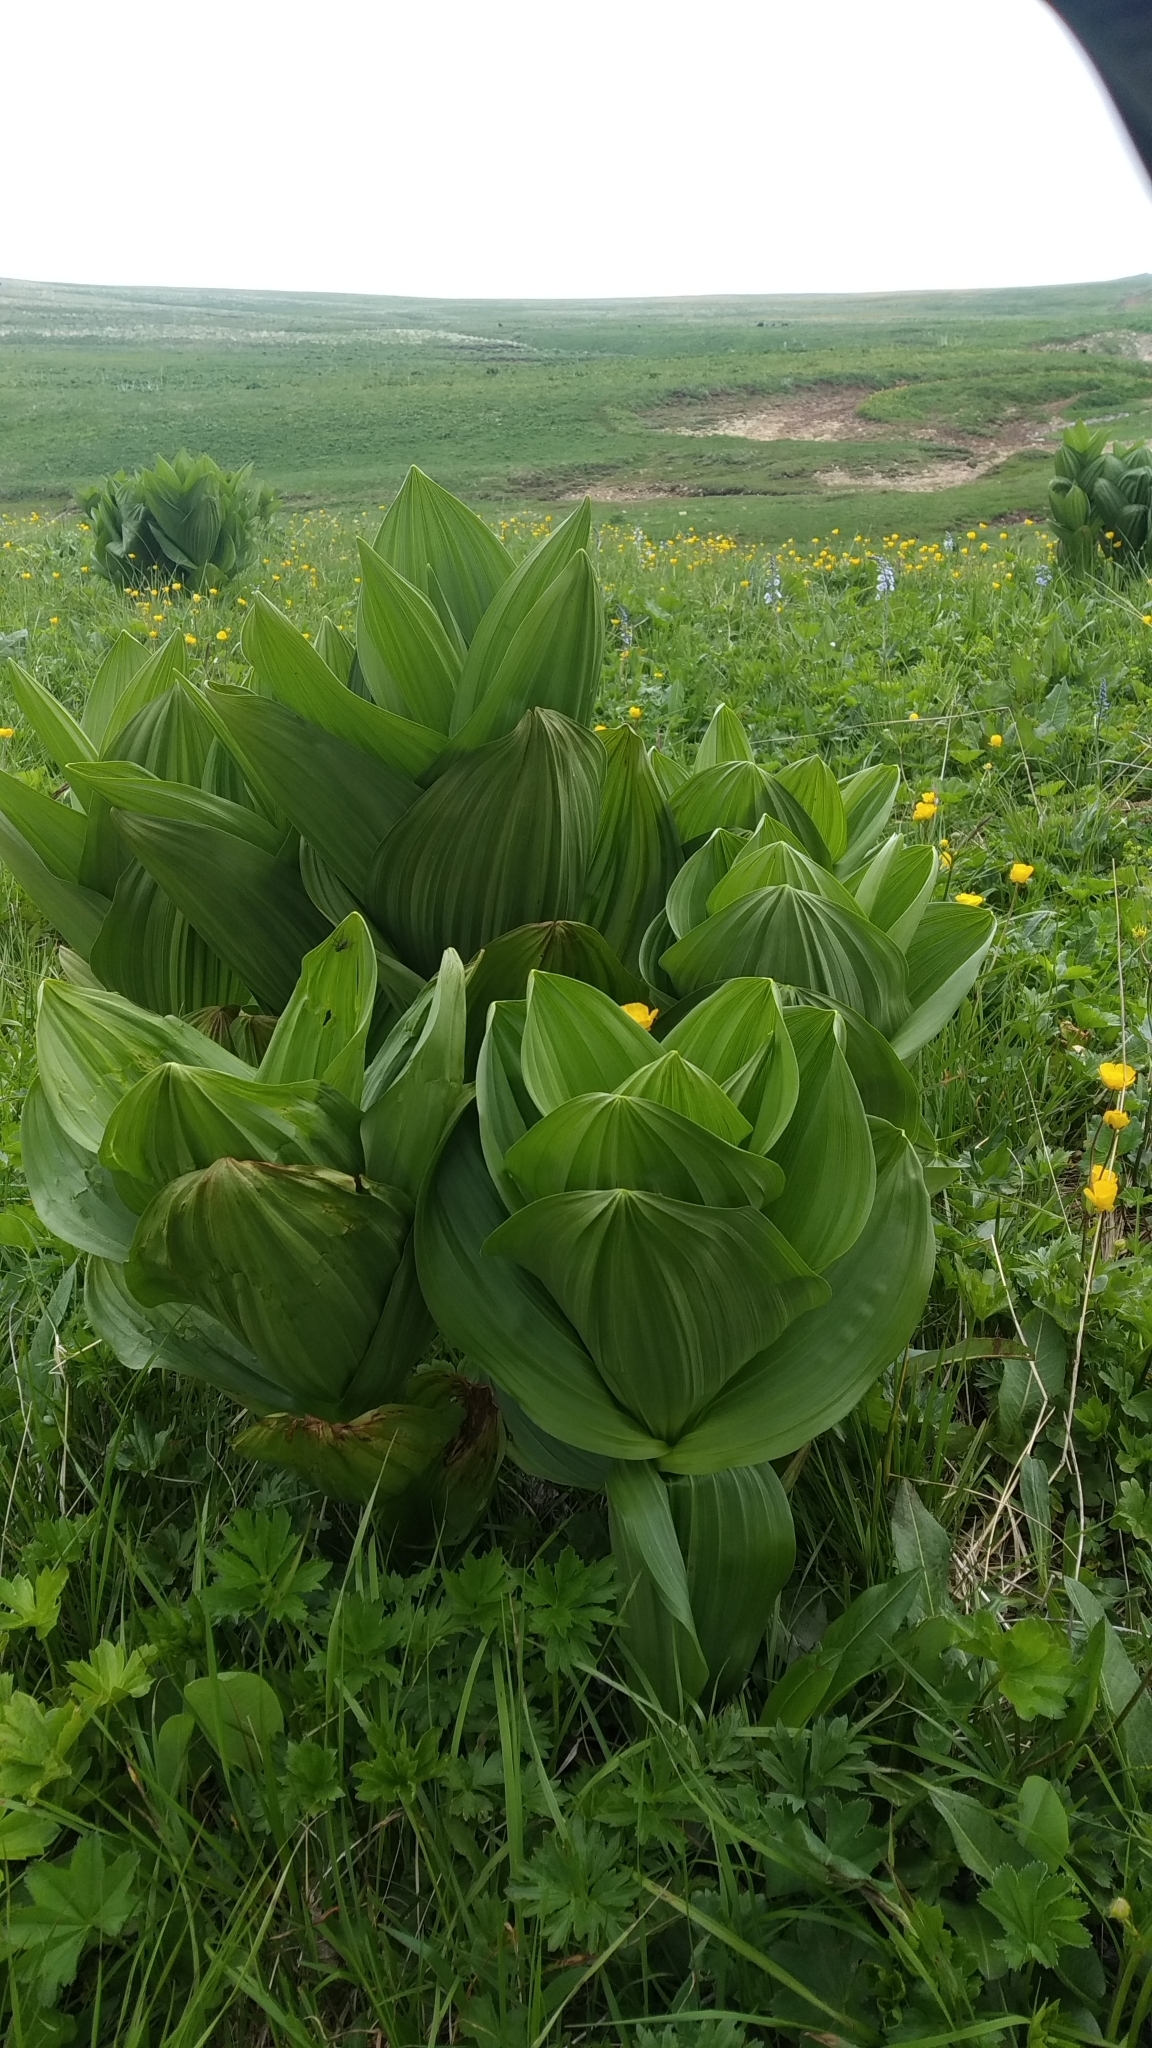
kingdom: Plantae
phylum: Tracheophyta
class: Liliopsida
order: Liliales
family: Melanthiaceae
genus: Veratrum
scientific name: Veratrum lobelianum
